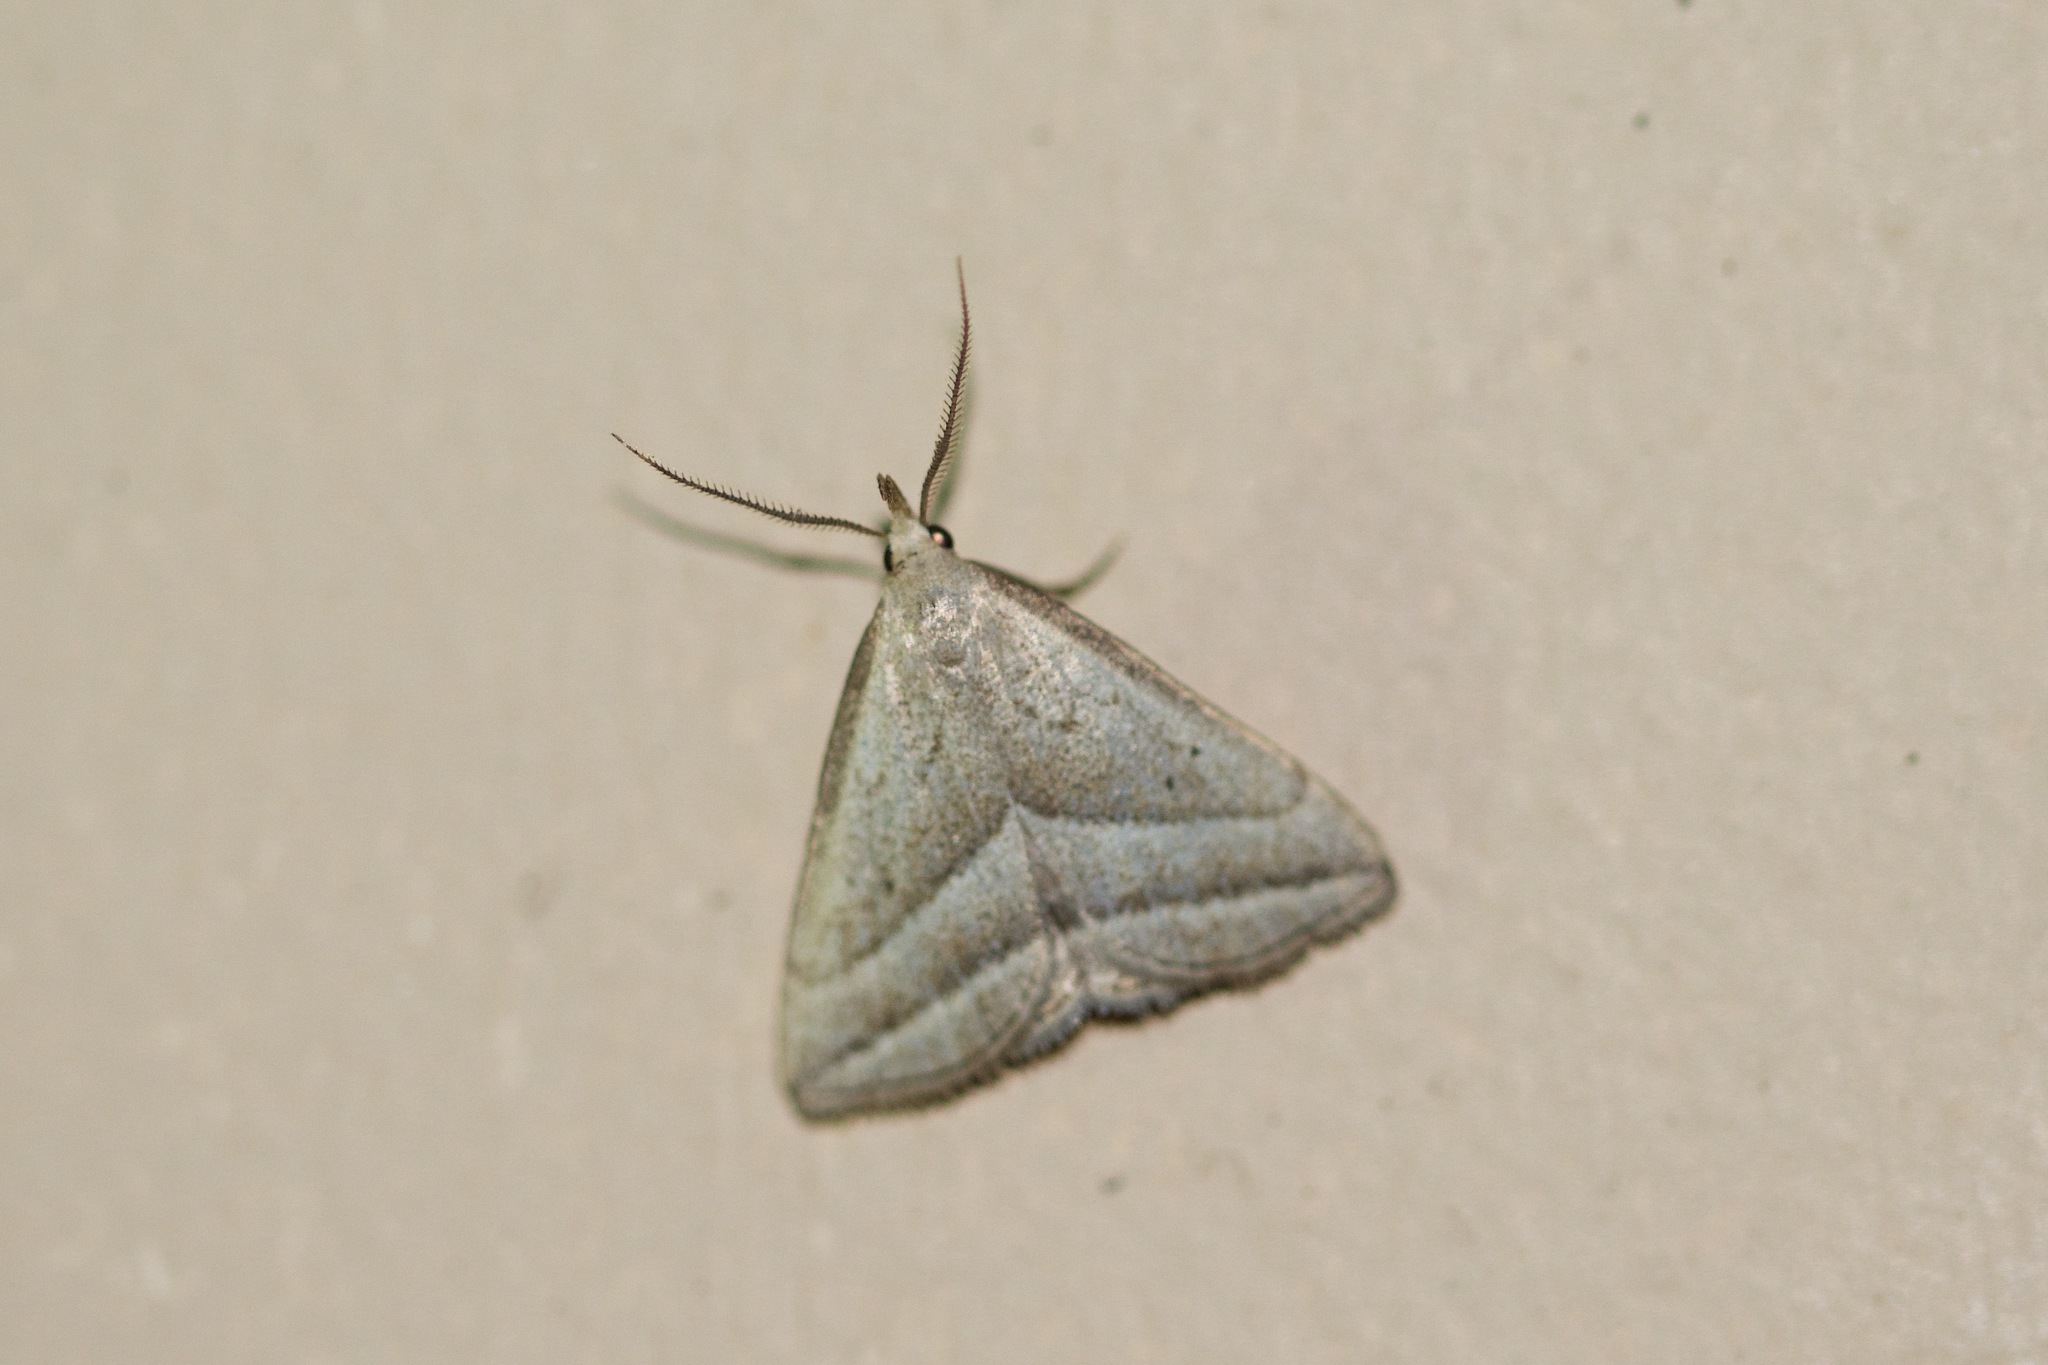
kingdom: Animalia
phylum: Arthropoda
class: Insecta
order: Lepidoptera
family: Erebidae
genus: Macrochilo
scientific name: Macrochilo absorptalis
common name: Slant-lined owlet
